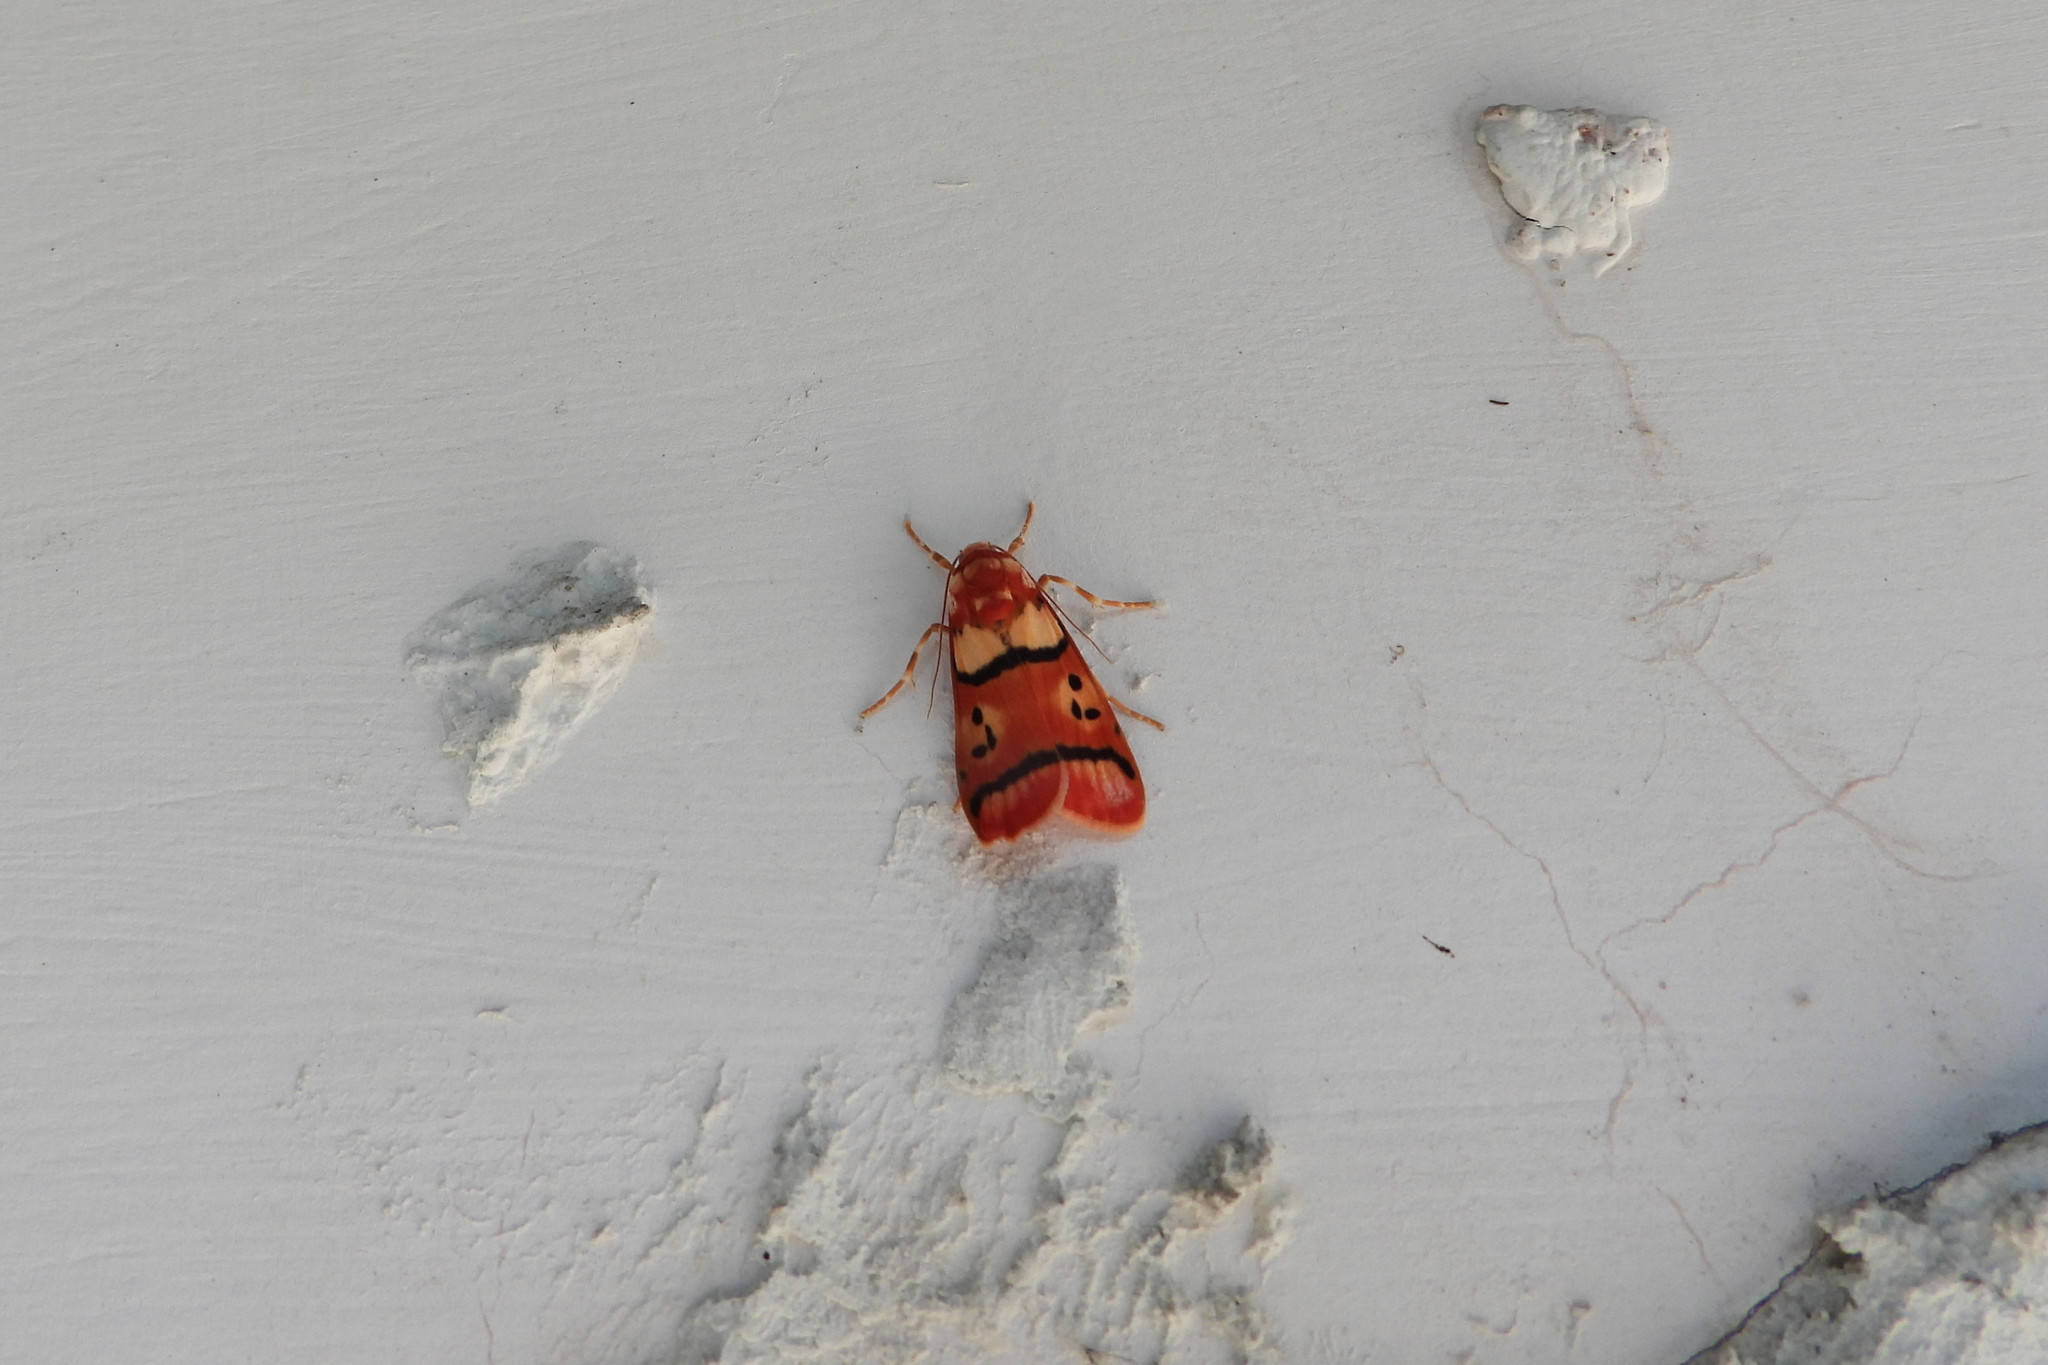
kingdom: Animalia
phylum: Arthropoda
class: Insecta
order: Lepidoptera
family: Erebidae
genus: Cyana
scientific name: Cyana coccinea
